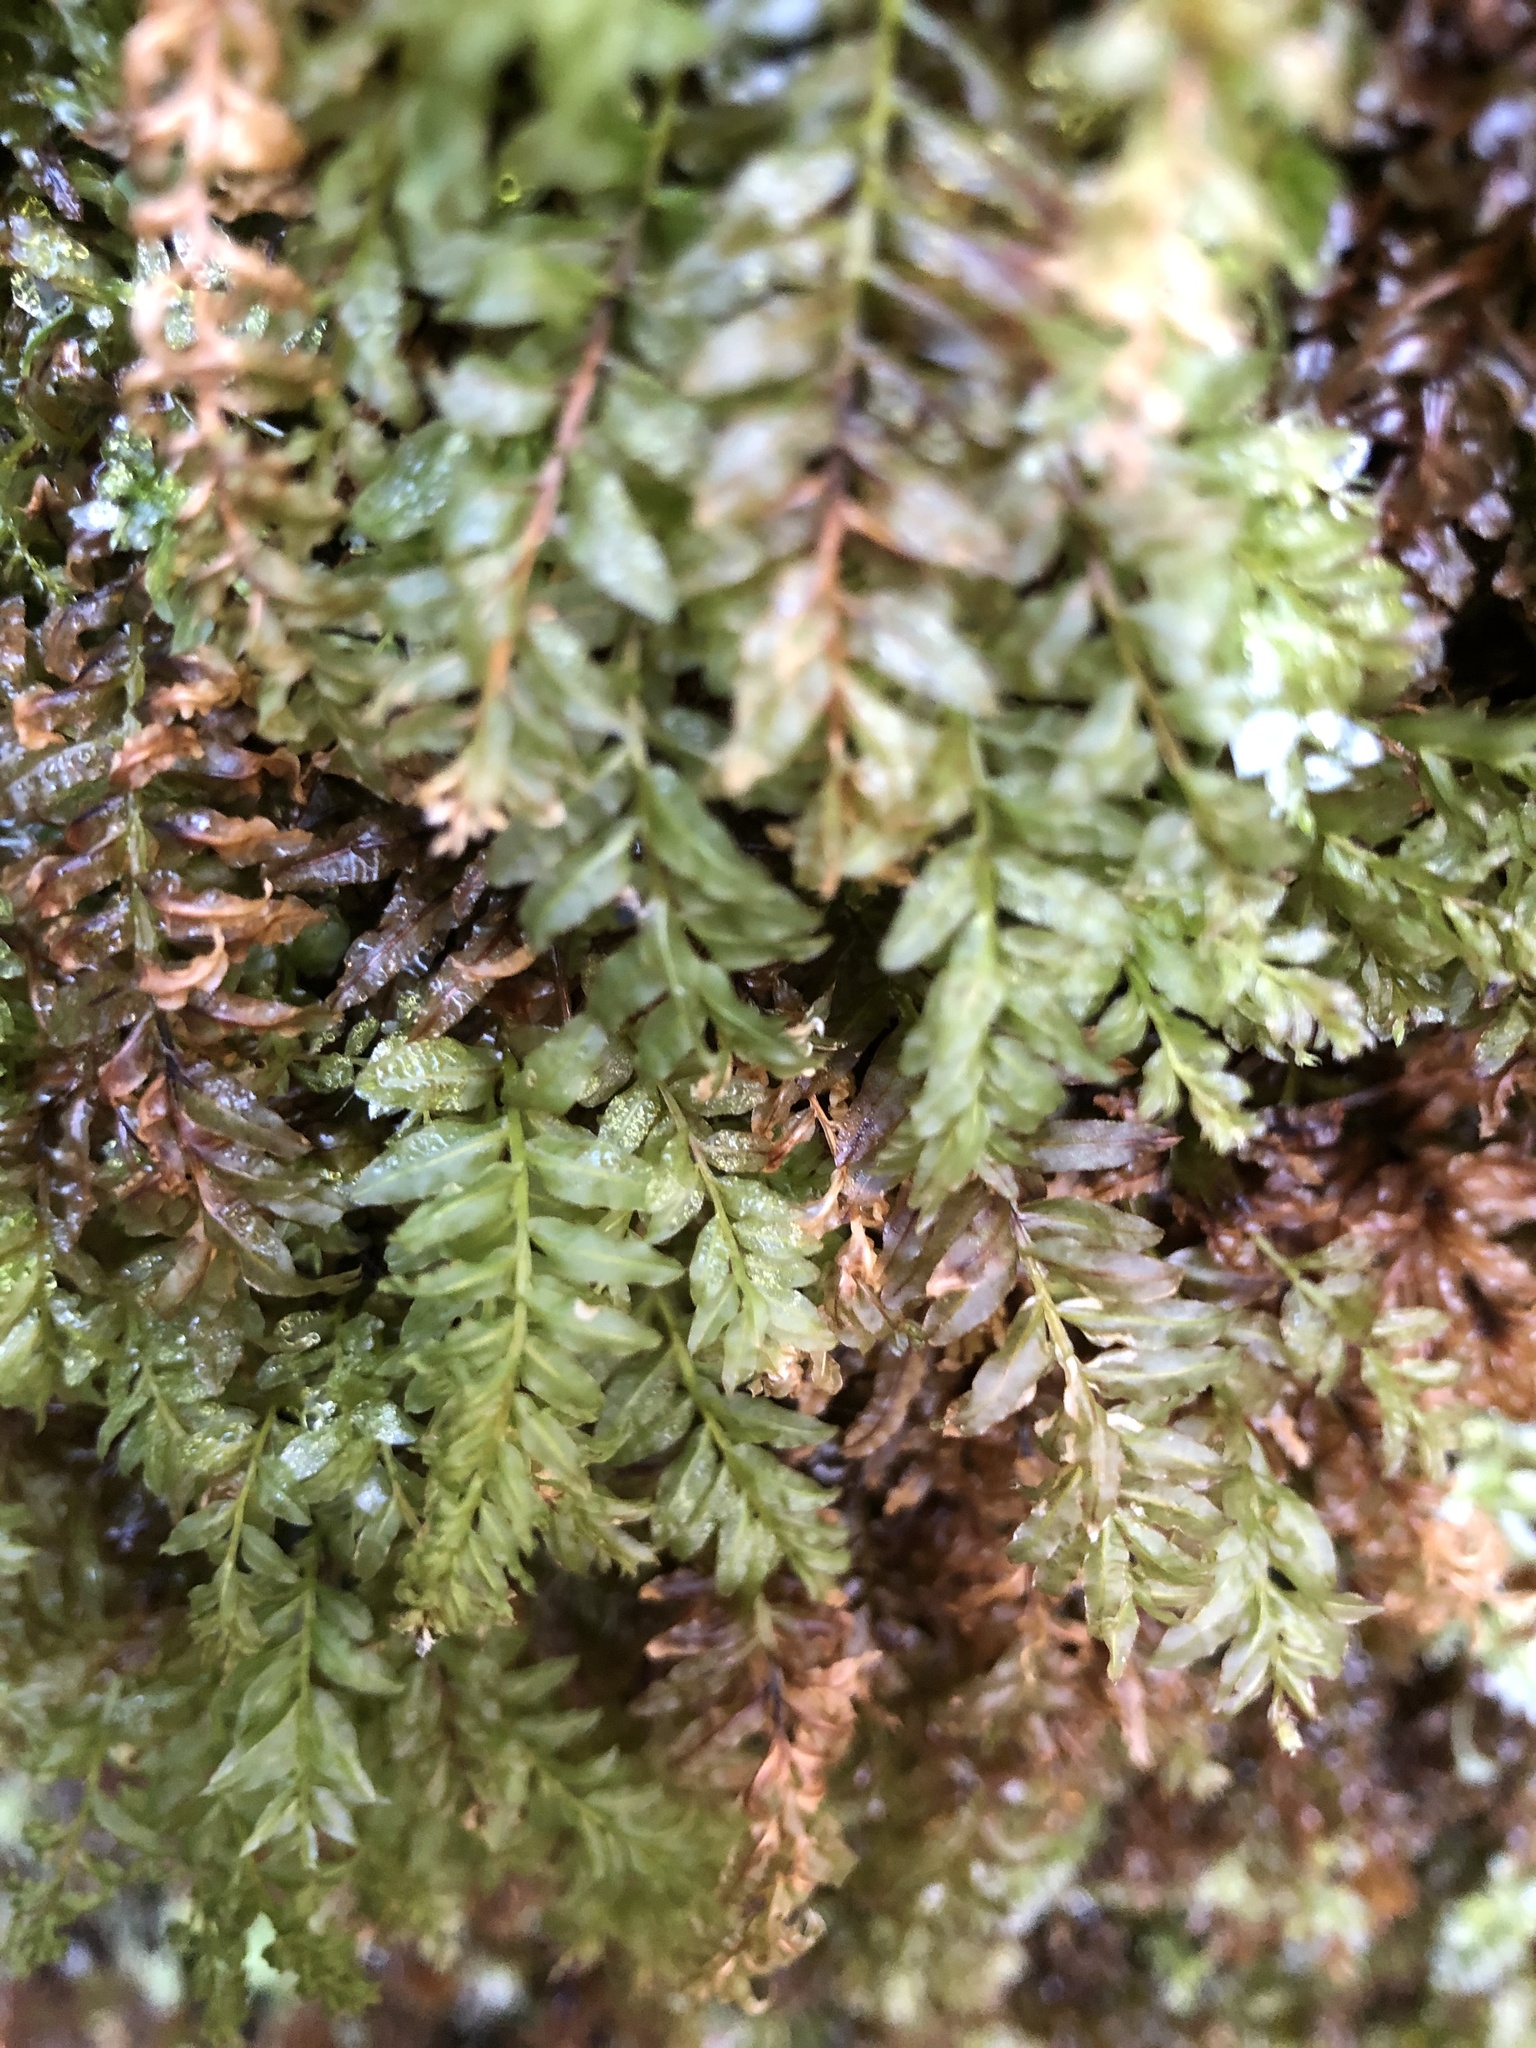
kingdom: Plantae
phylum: Bryophyta
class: Bryopsida
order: Bryales
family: Mniaceae
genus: Plagiomnium
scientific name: Plagiomnium undulatum
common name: Hart's-tongue thyme-moss
